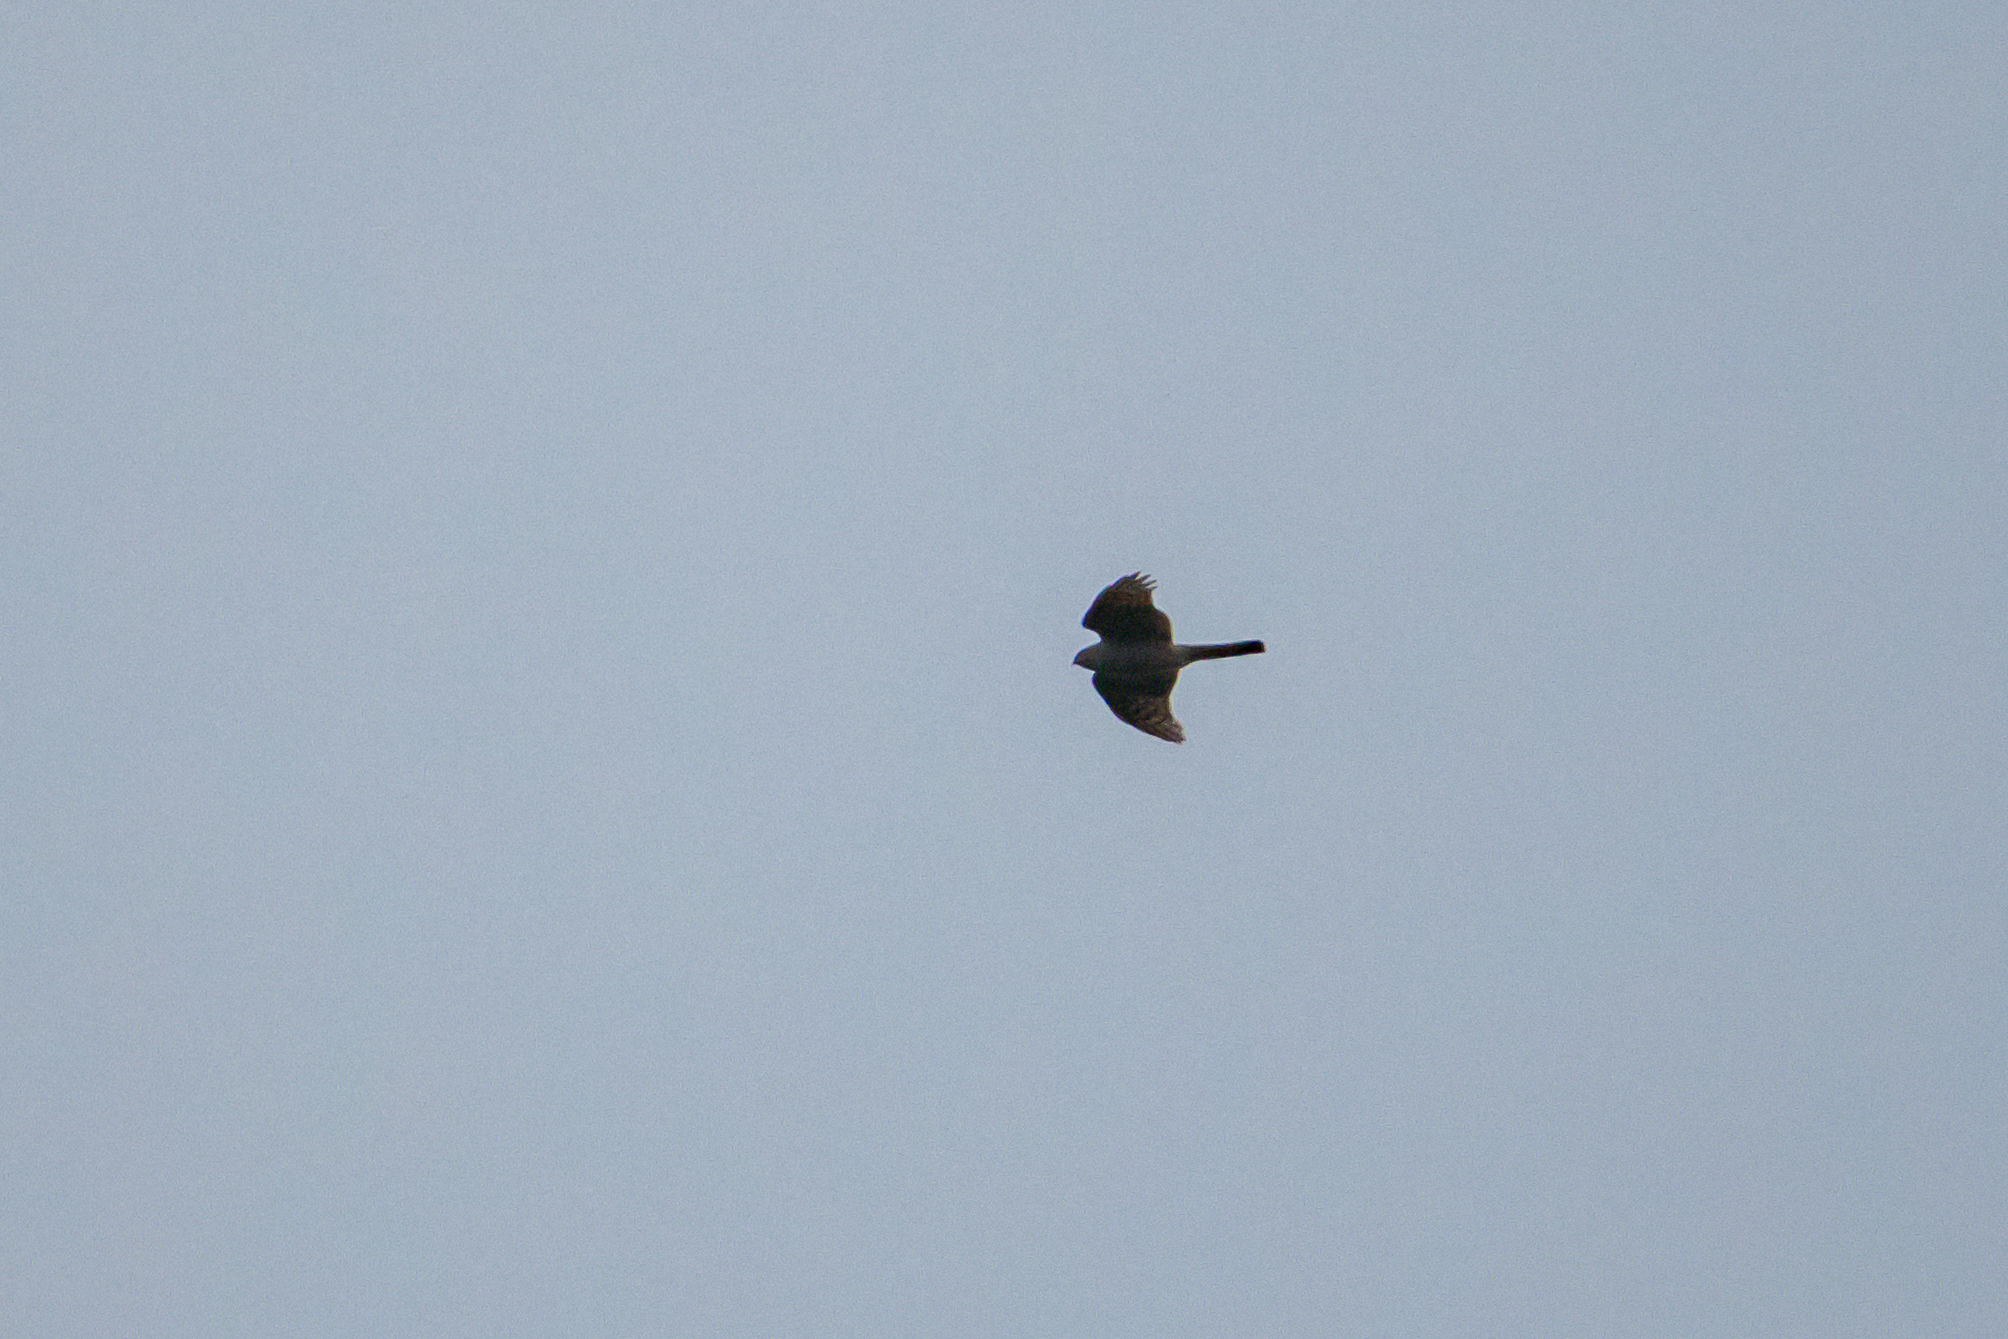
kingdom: Animalia
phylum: Chordata
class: Aves
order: Accipitriformes
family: Accipitridae
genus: Accipiter
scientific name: Accipiter nisus
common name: Eurasian sparrowhawk
